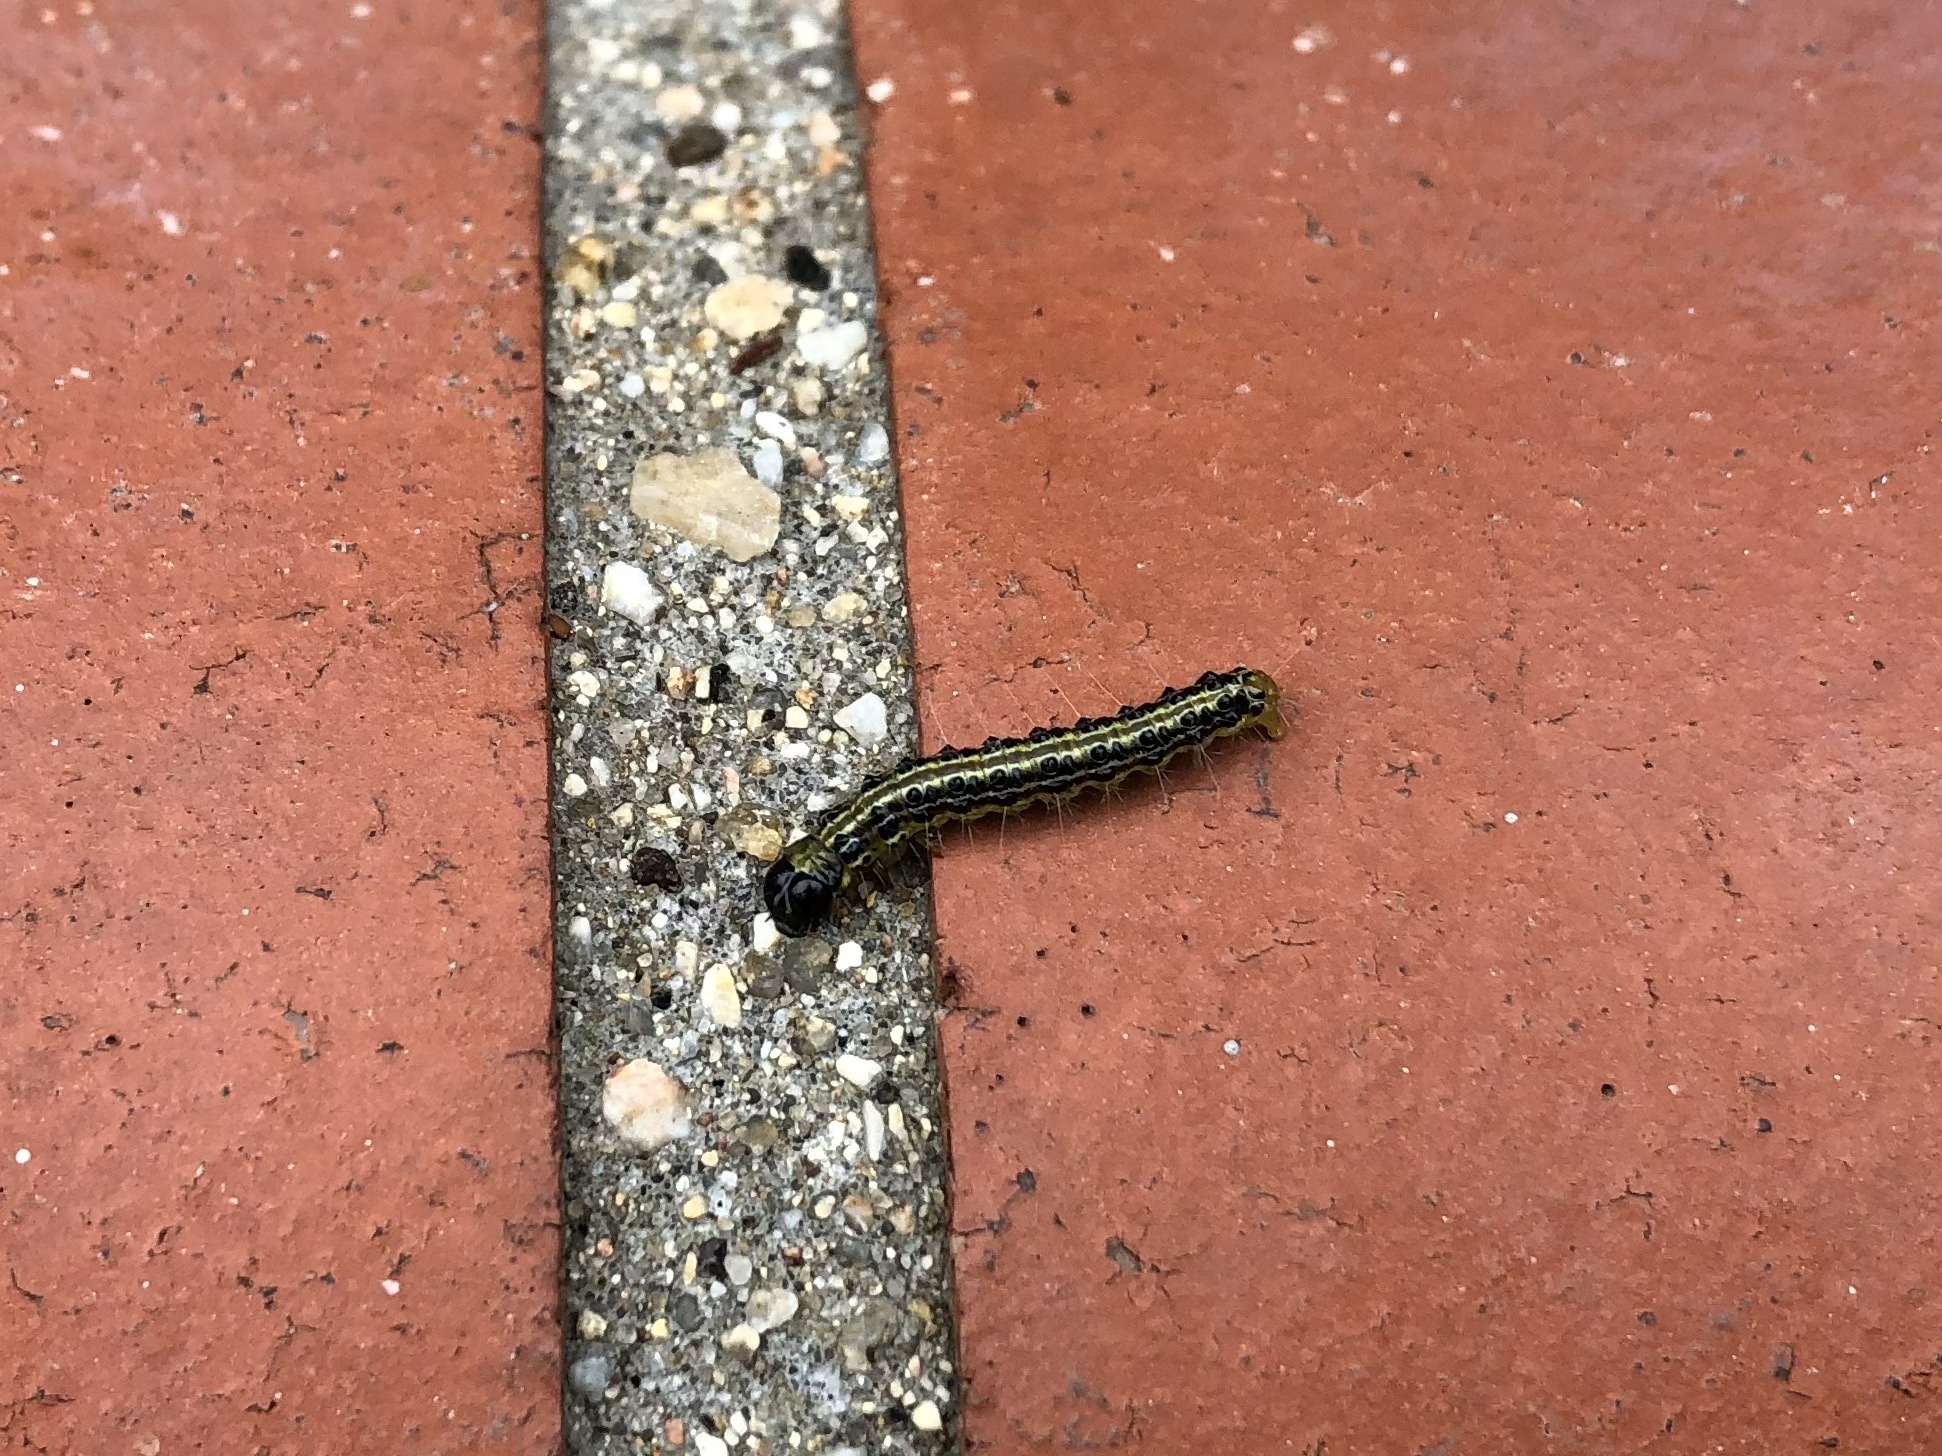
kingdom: Animalia
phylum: Arthropoda
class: Insecta
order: Lepidoptera
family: Crambidae
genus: Cydalima
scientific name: Cydalima perspectalis
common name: Box tree moth
